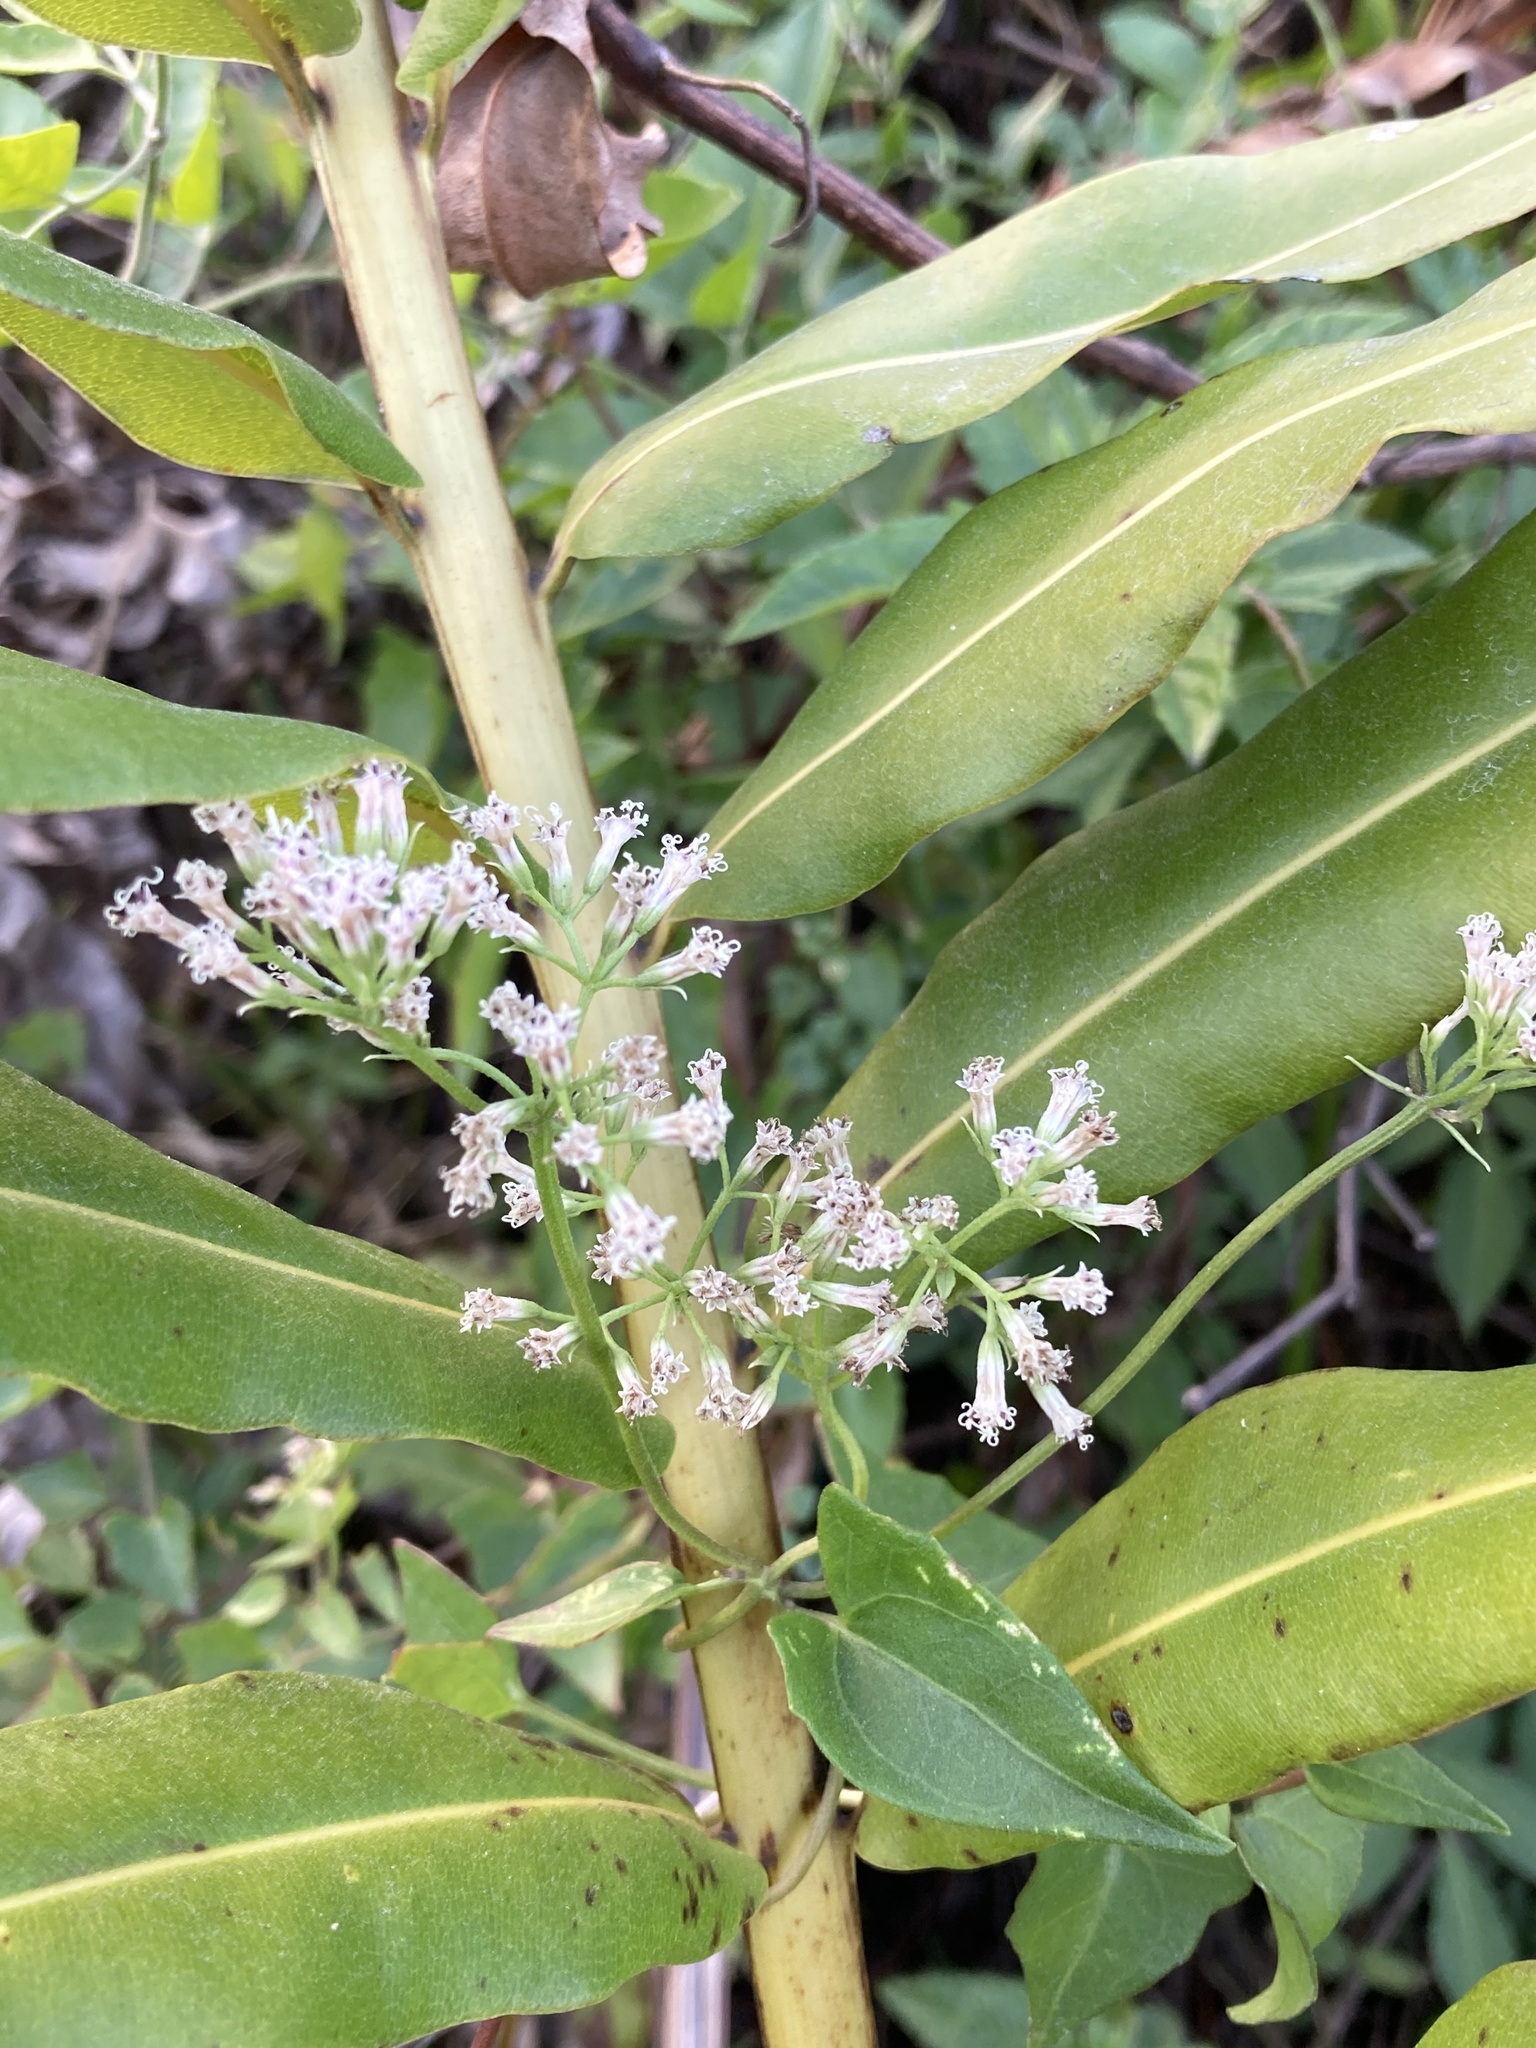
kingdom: Plantae
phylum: Tracheophyta
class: Magnoliopsida
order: Asterales
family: Asteraceae
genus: Mikania
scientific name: Mikania scandens
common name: Climbing hempvine
